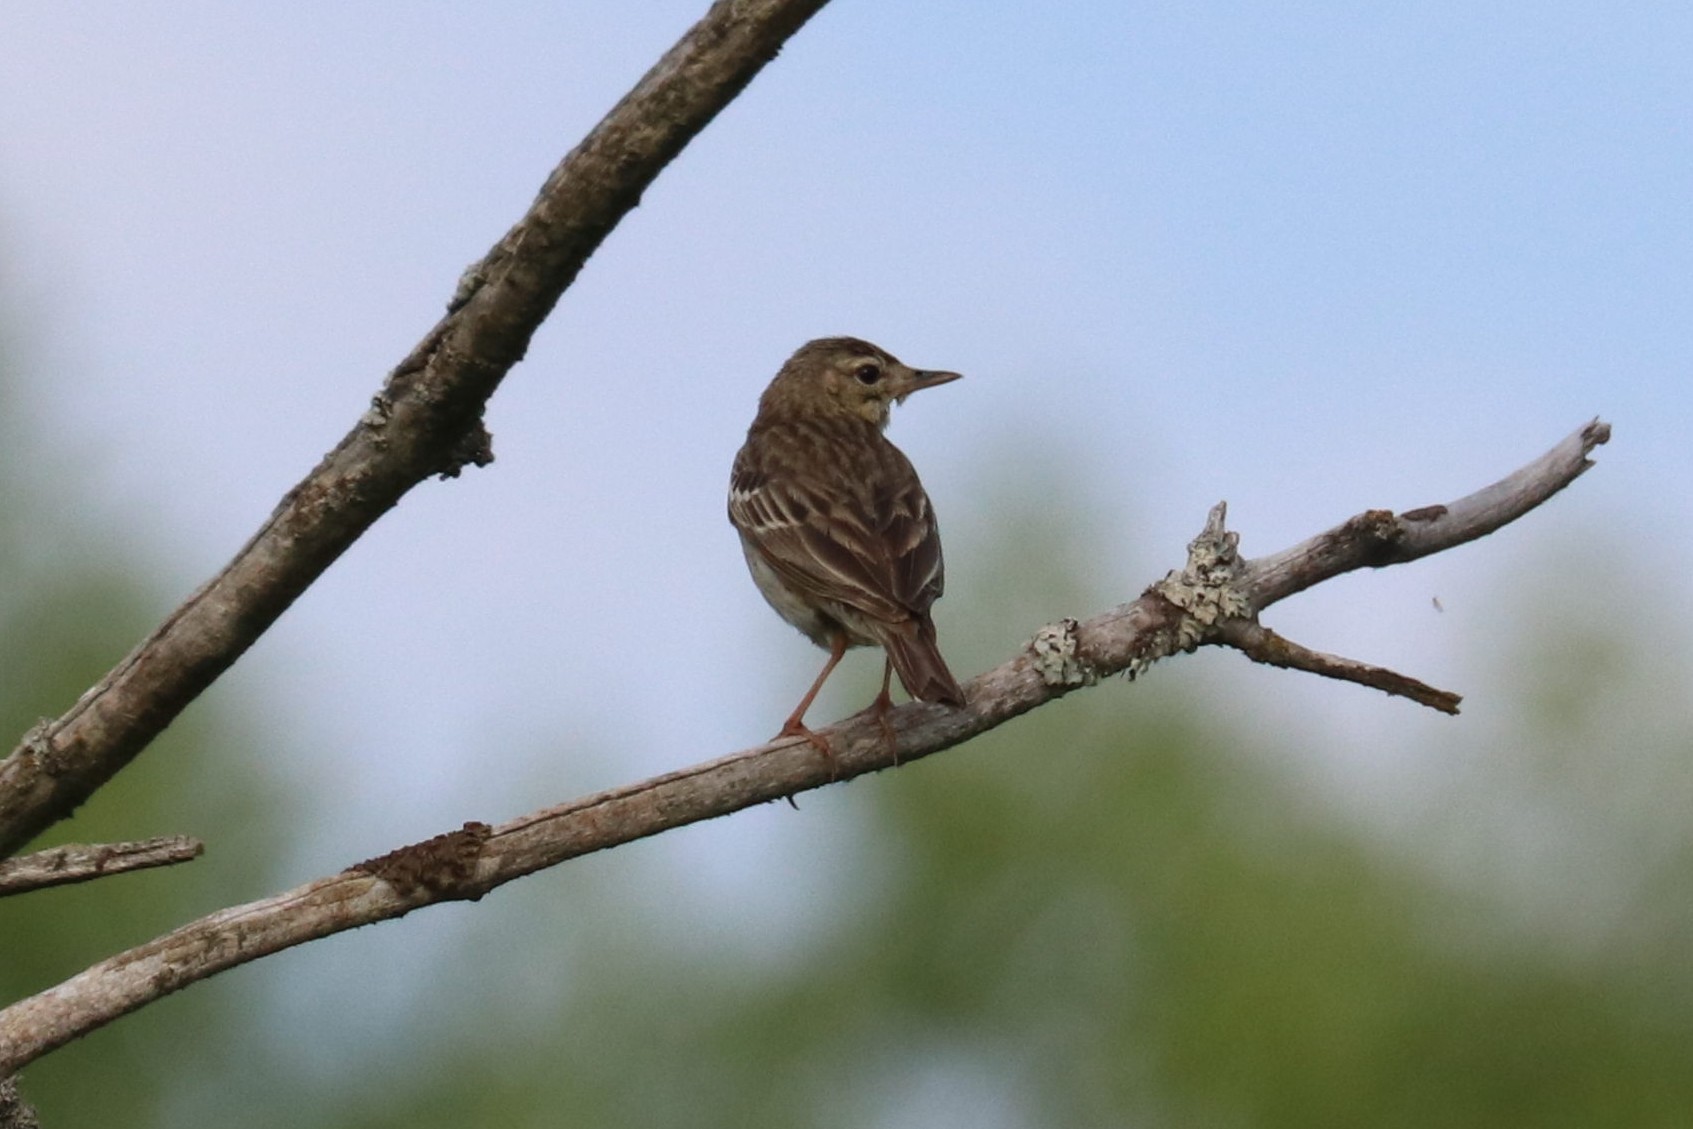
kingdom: Animalia
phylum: Chordata
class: Aves
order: Passeriformes
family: Motacillidae
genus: Anthus
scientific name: Anthus trivialis
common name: Tree pipit
